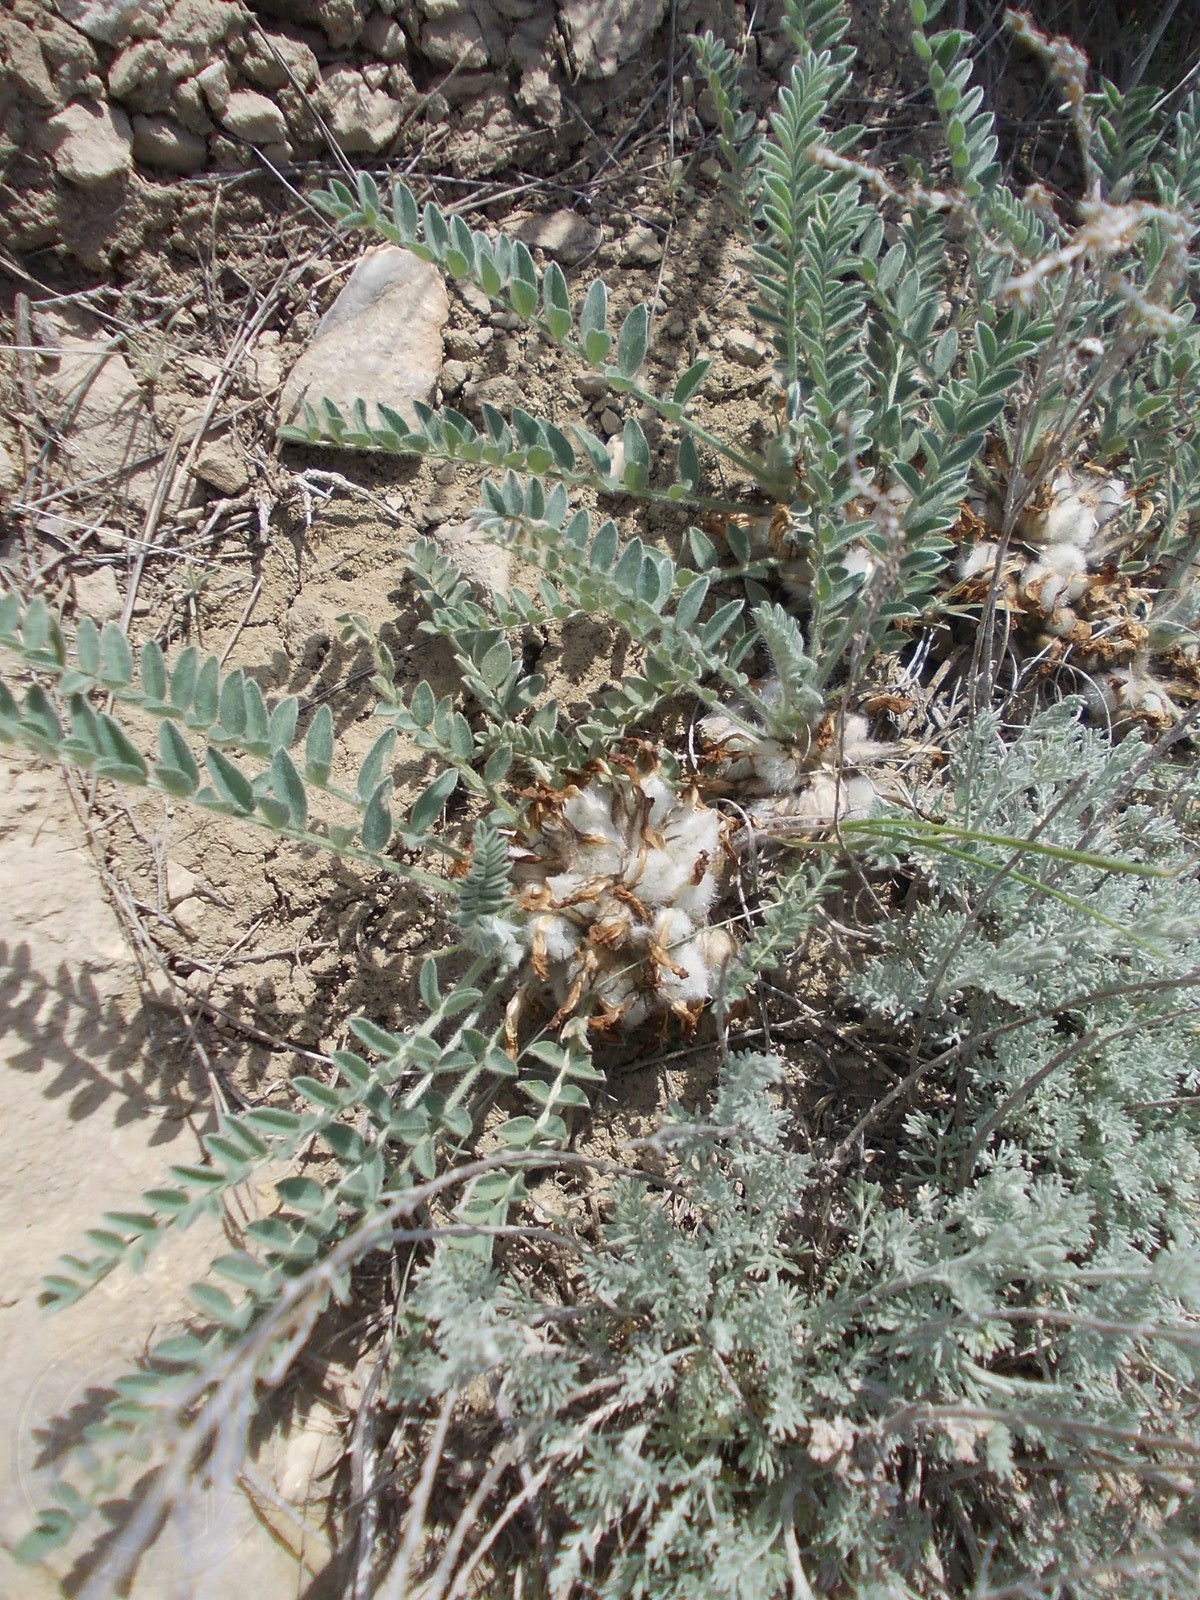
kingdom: Plantae
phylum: Tracheophyta
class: Magnoliopsida
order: Fabales
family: Fabaceae
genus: Astragalus
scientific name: Astragalus testiculatus
